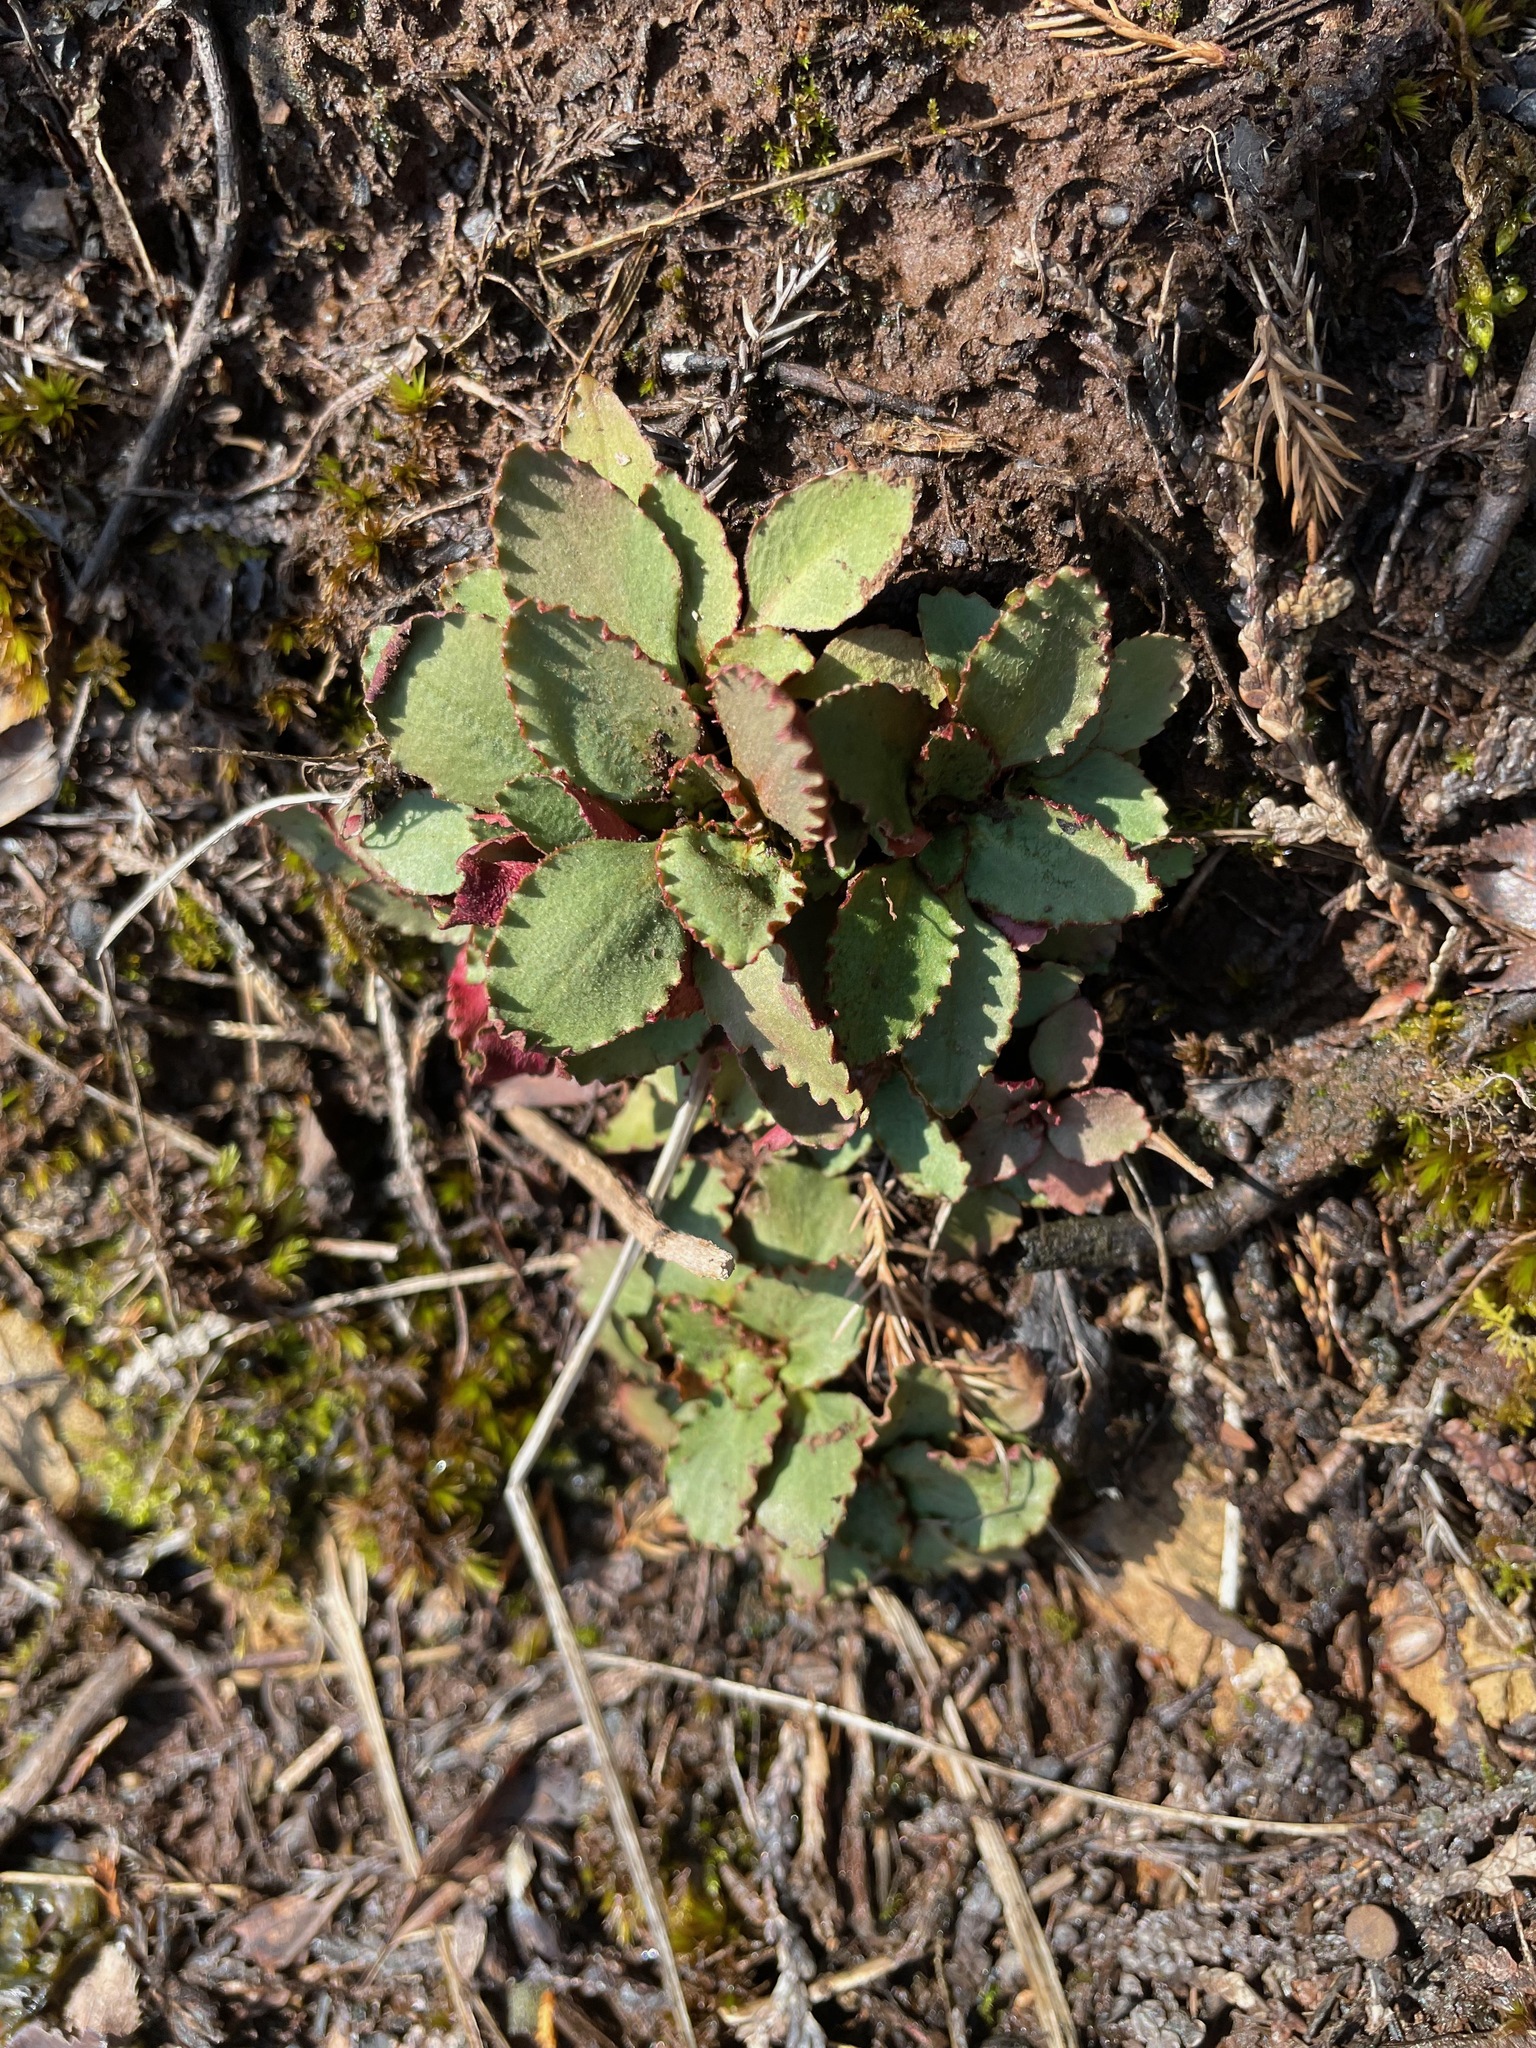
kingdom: Plantae
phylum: Tracheophyta
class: Magnoliopsida
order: Saxifragales
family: Saxifragaceae
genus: Micranthes
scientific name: Micranthes virginiensis
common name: Early saxifrage
